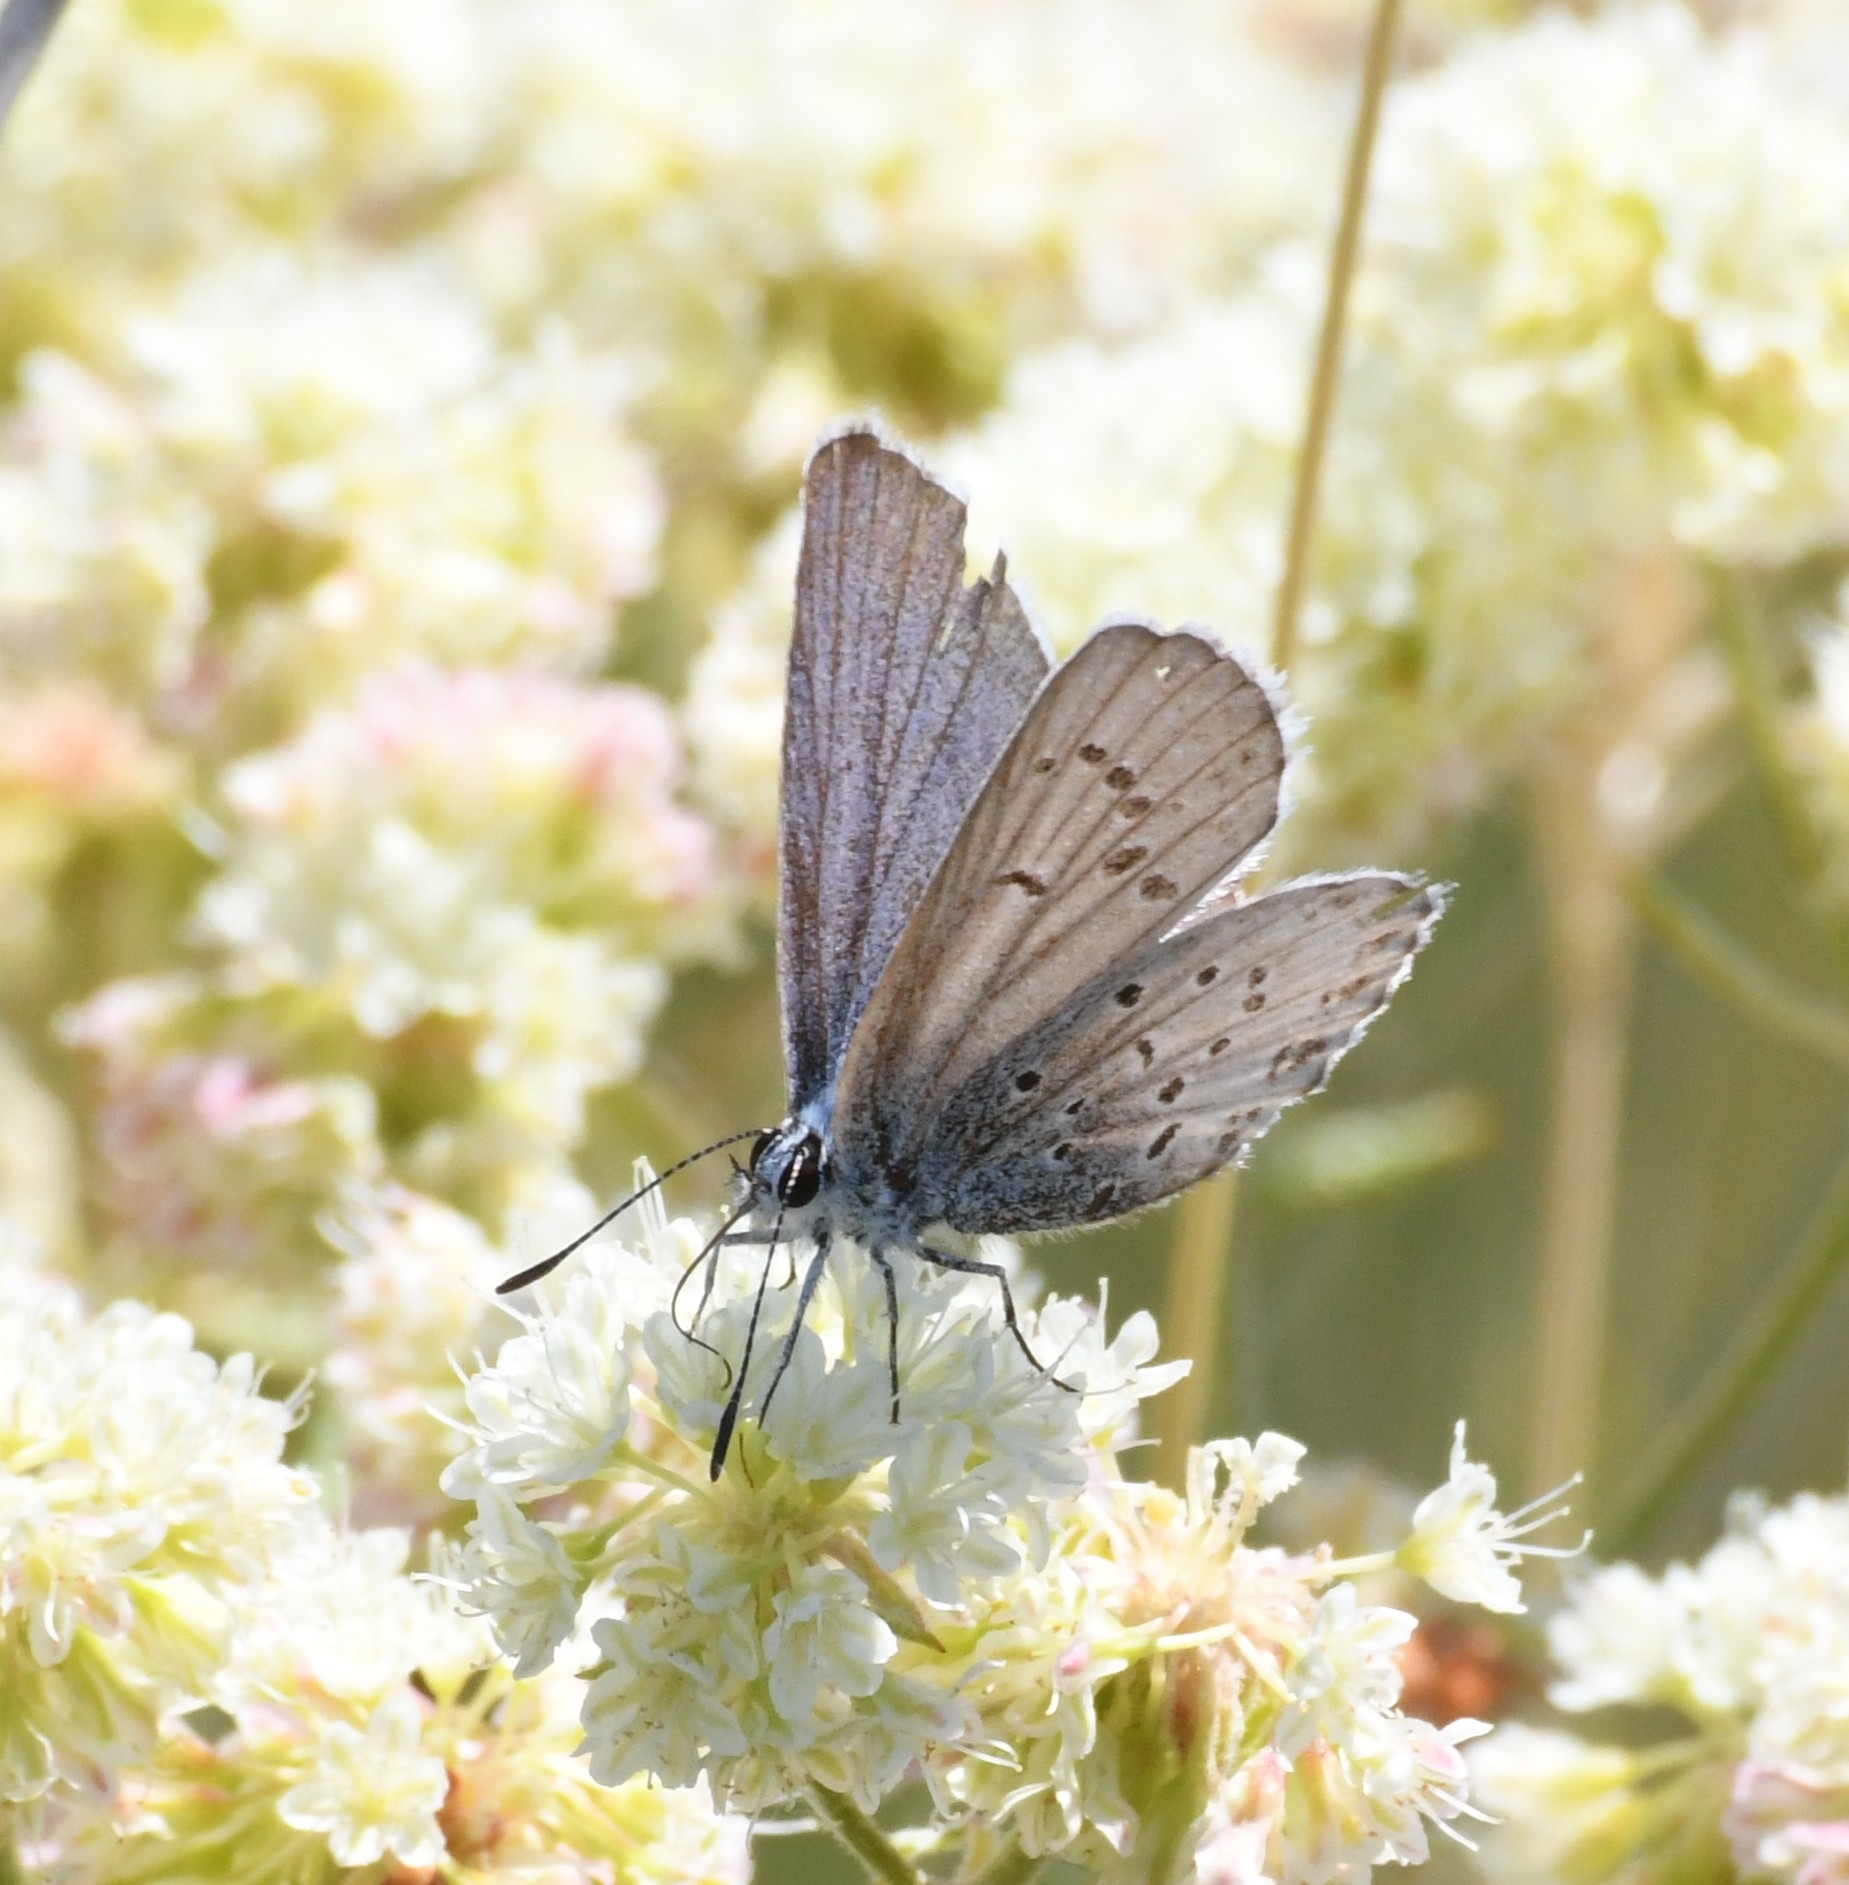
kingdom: Animalia
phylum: Arthropoda
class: Insecta
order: Lepidoptera
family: Lycaenidae
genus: Lycaeides
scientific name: Lycaeides anna
